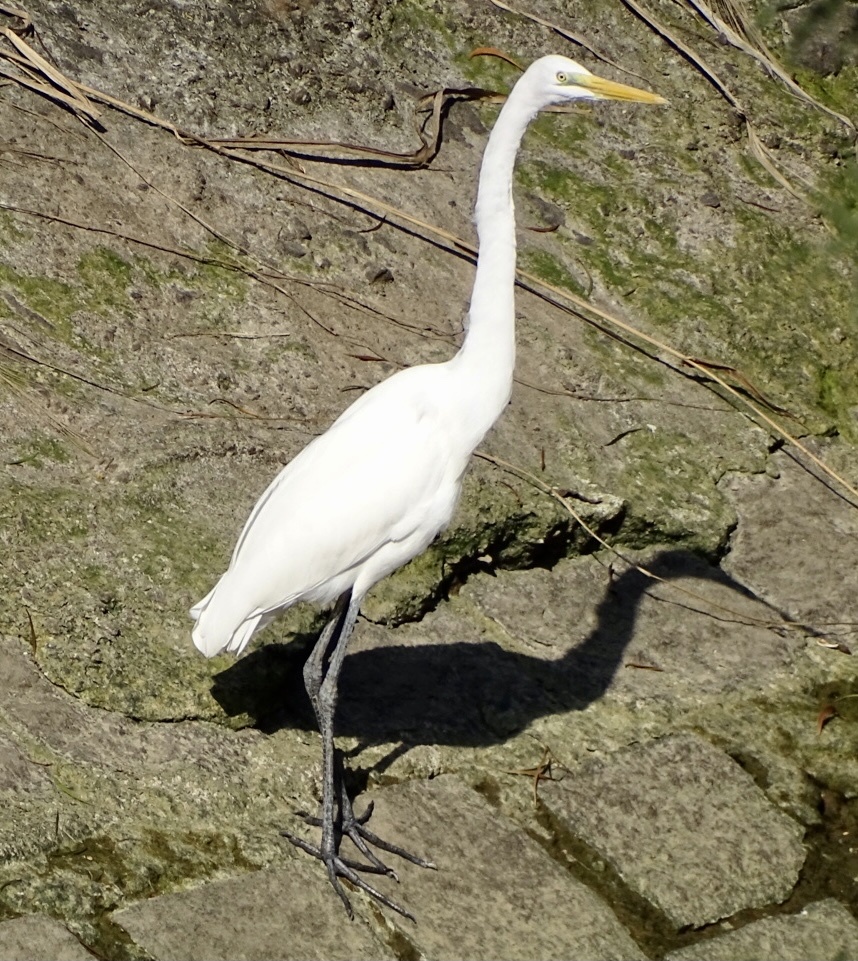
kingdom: Animalia
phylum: Chordata
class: Aves
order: Pelecaniformes
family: Ardeidae
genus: Ardea
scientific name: Ardea alba
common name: Great egret
